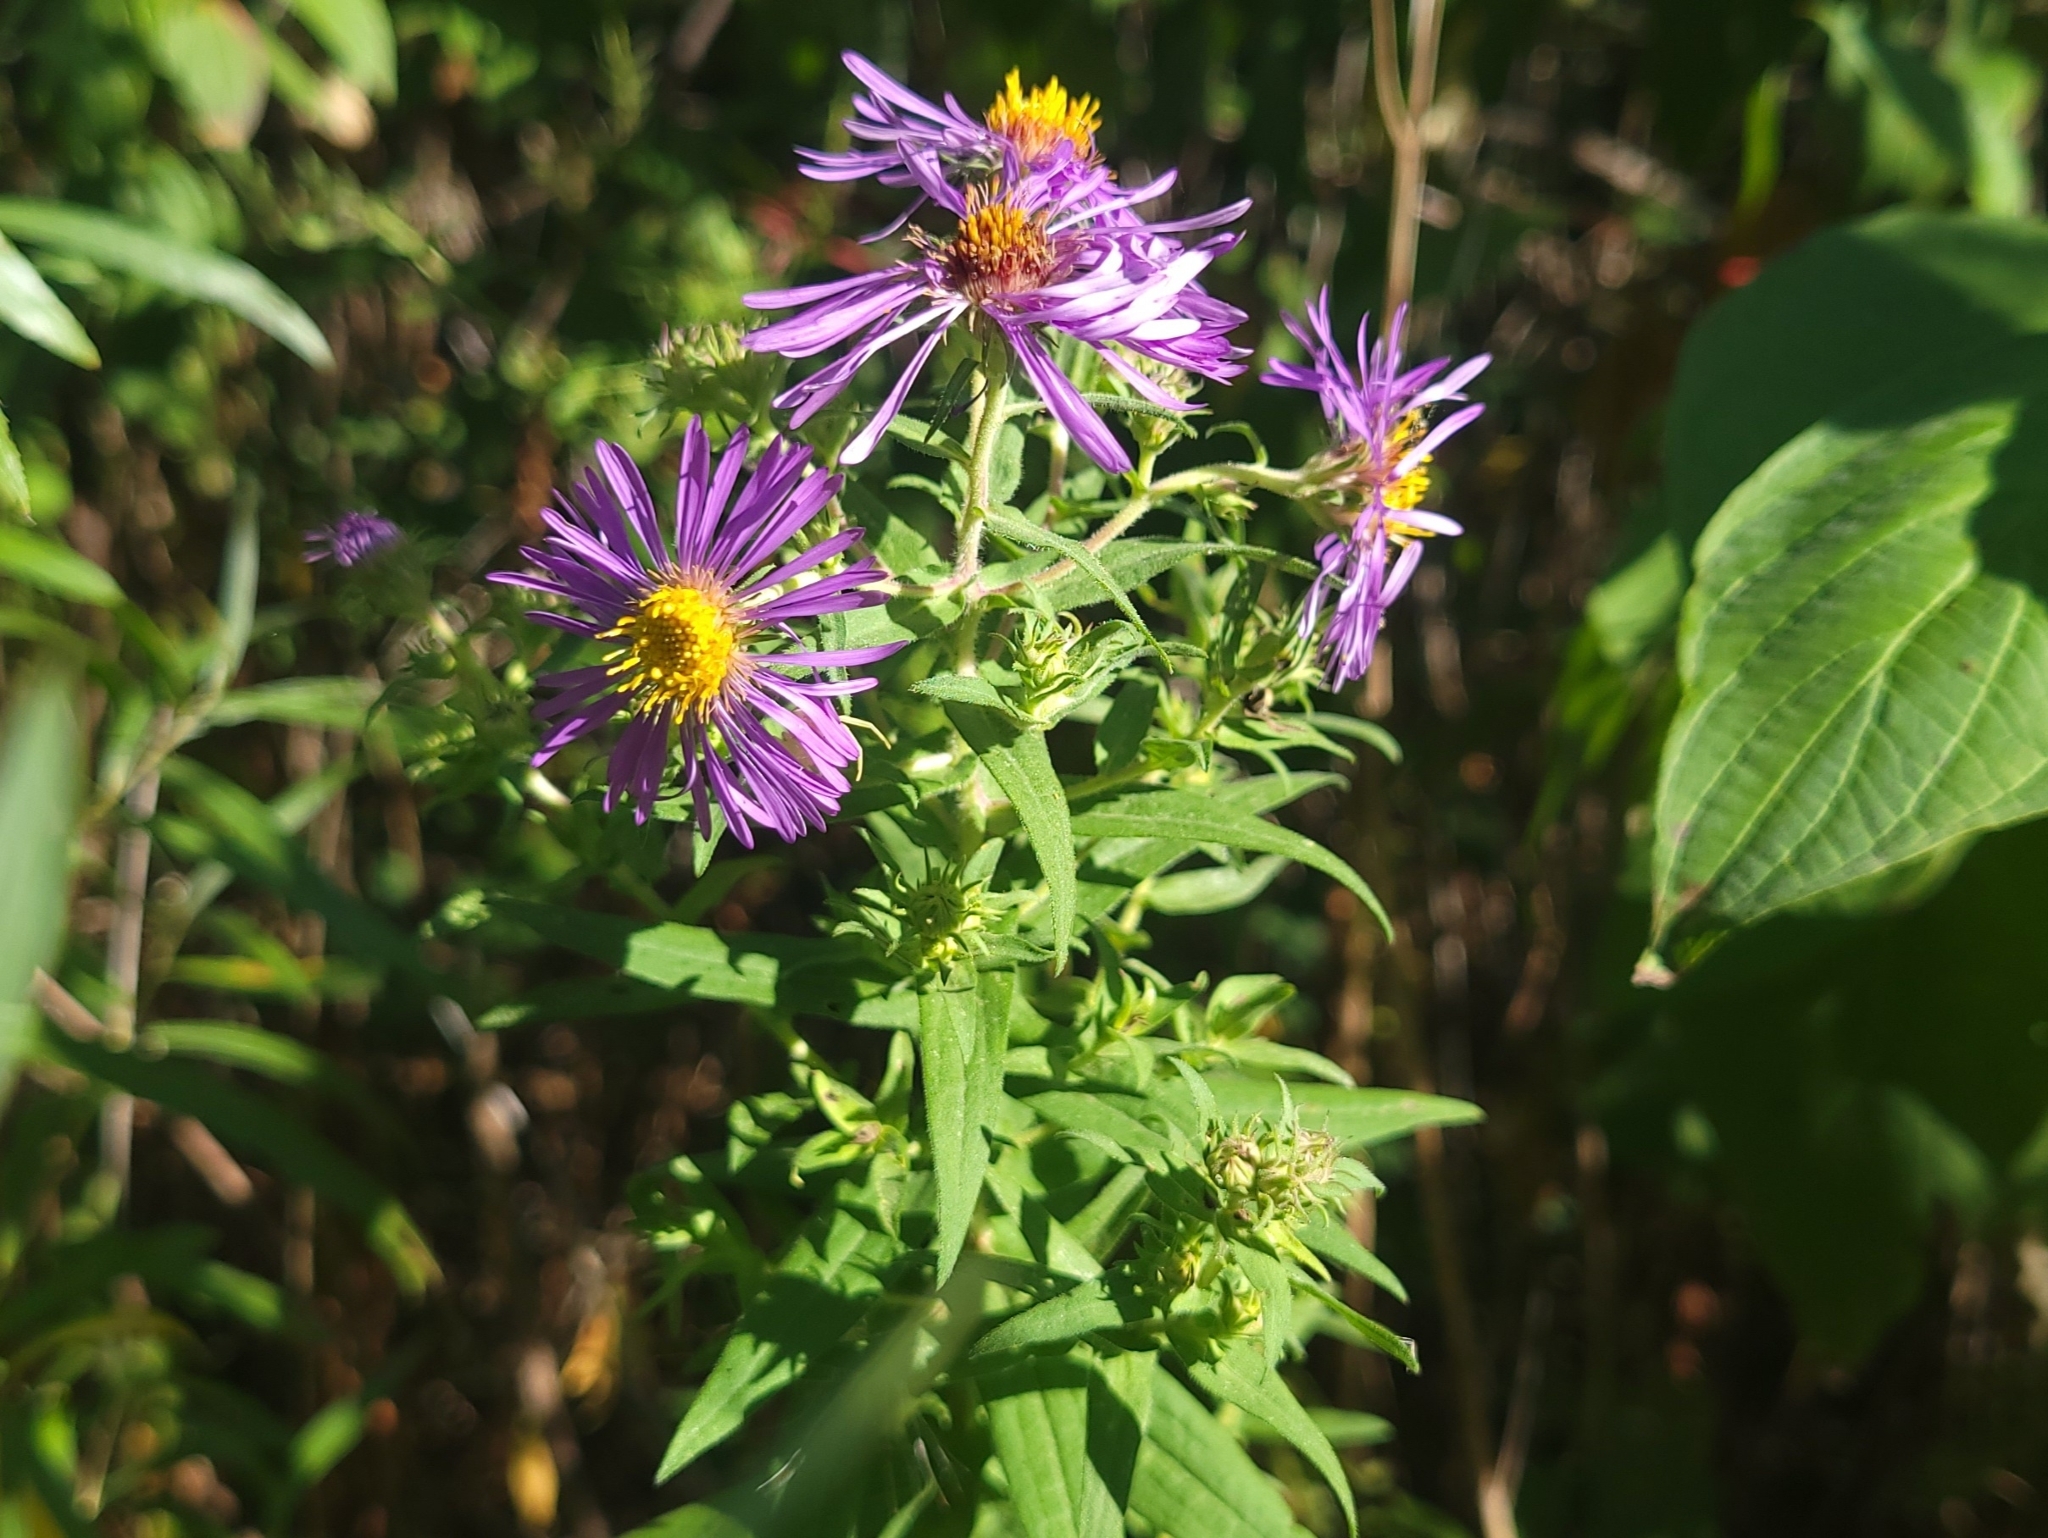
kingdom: Plantae
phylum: Tracheophyta
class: Magnoliopsida
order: Asterales
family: Asteraceae
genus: Symphyotrichum
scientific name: Symphyotrichum novae-angliae
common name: Michaelmas daisy
